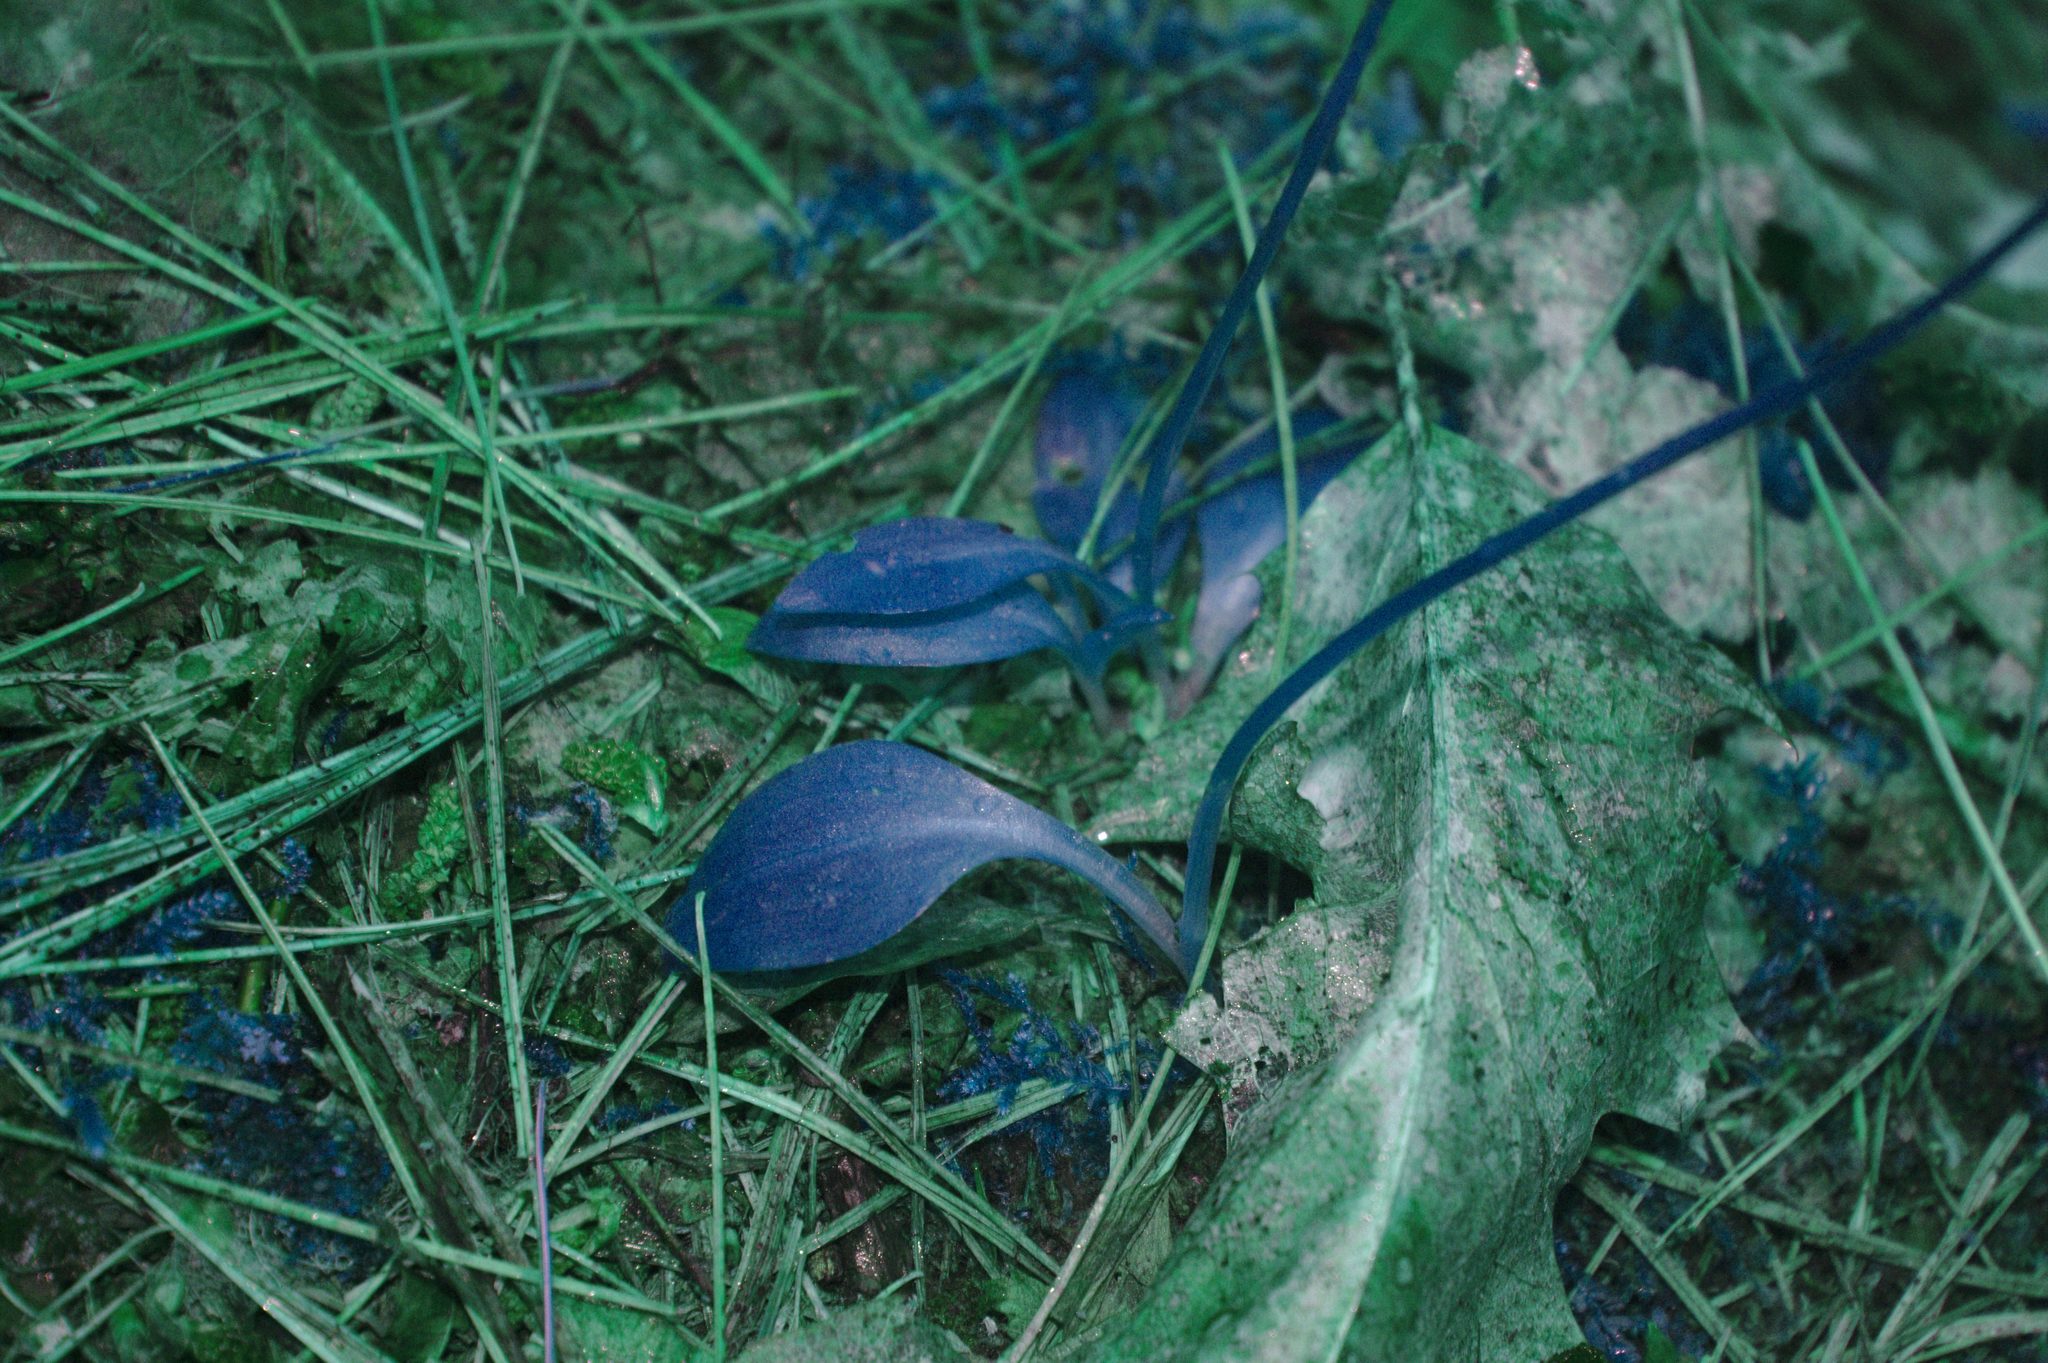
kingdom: Plantae
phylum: Tracheophyta
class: Liliopsida
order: Asparagales
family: Orchidaceae
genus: Spiranthes
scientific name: Spiranthes lacera
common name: Northern slender ladies'-tresses
